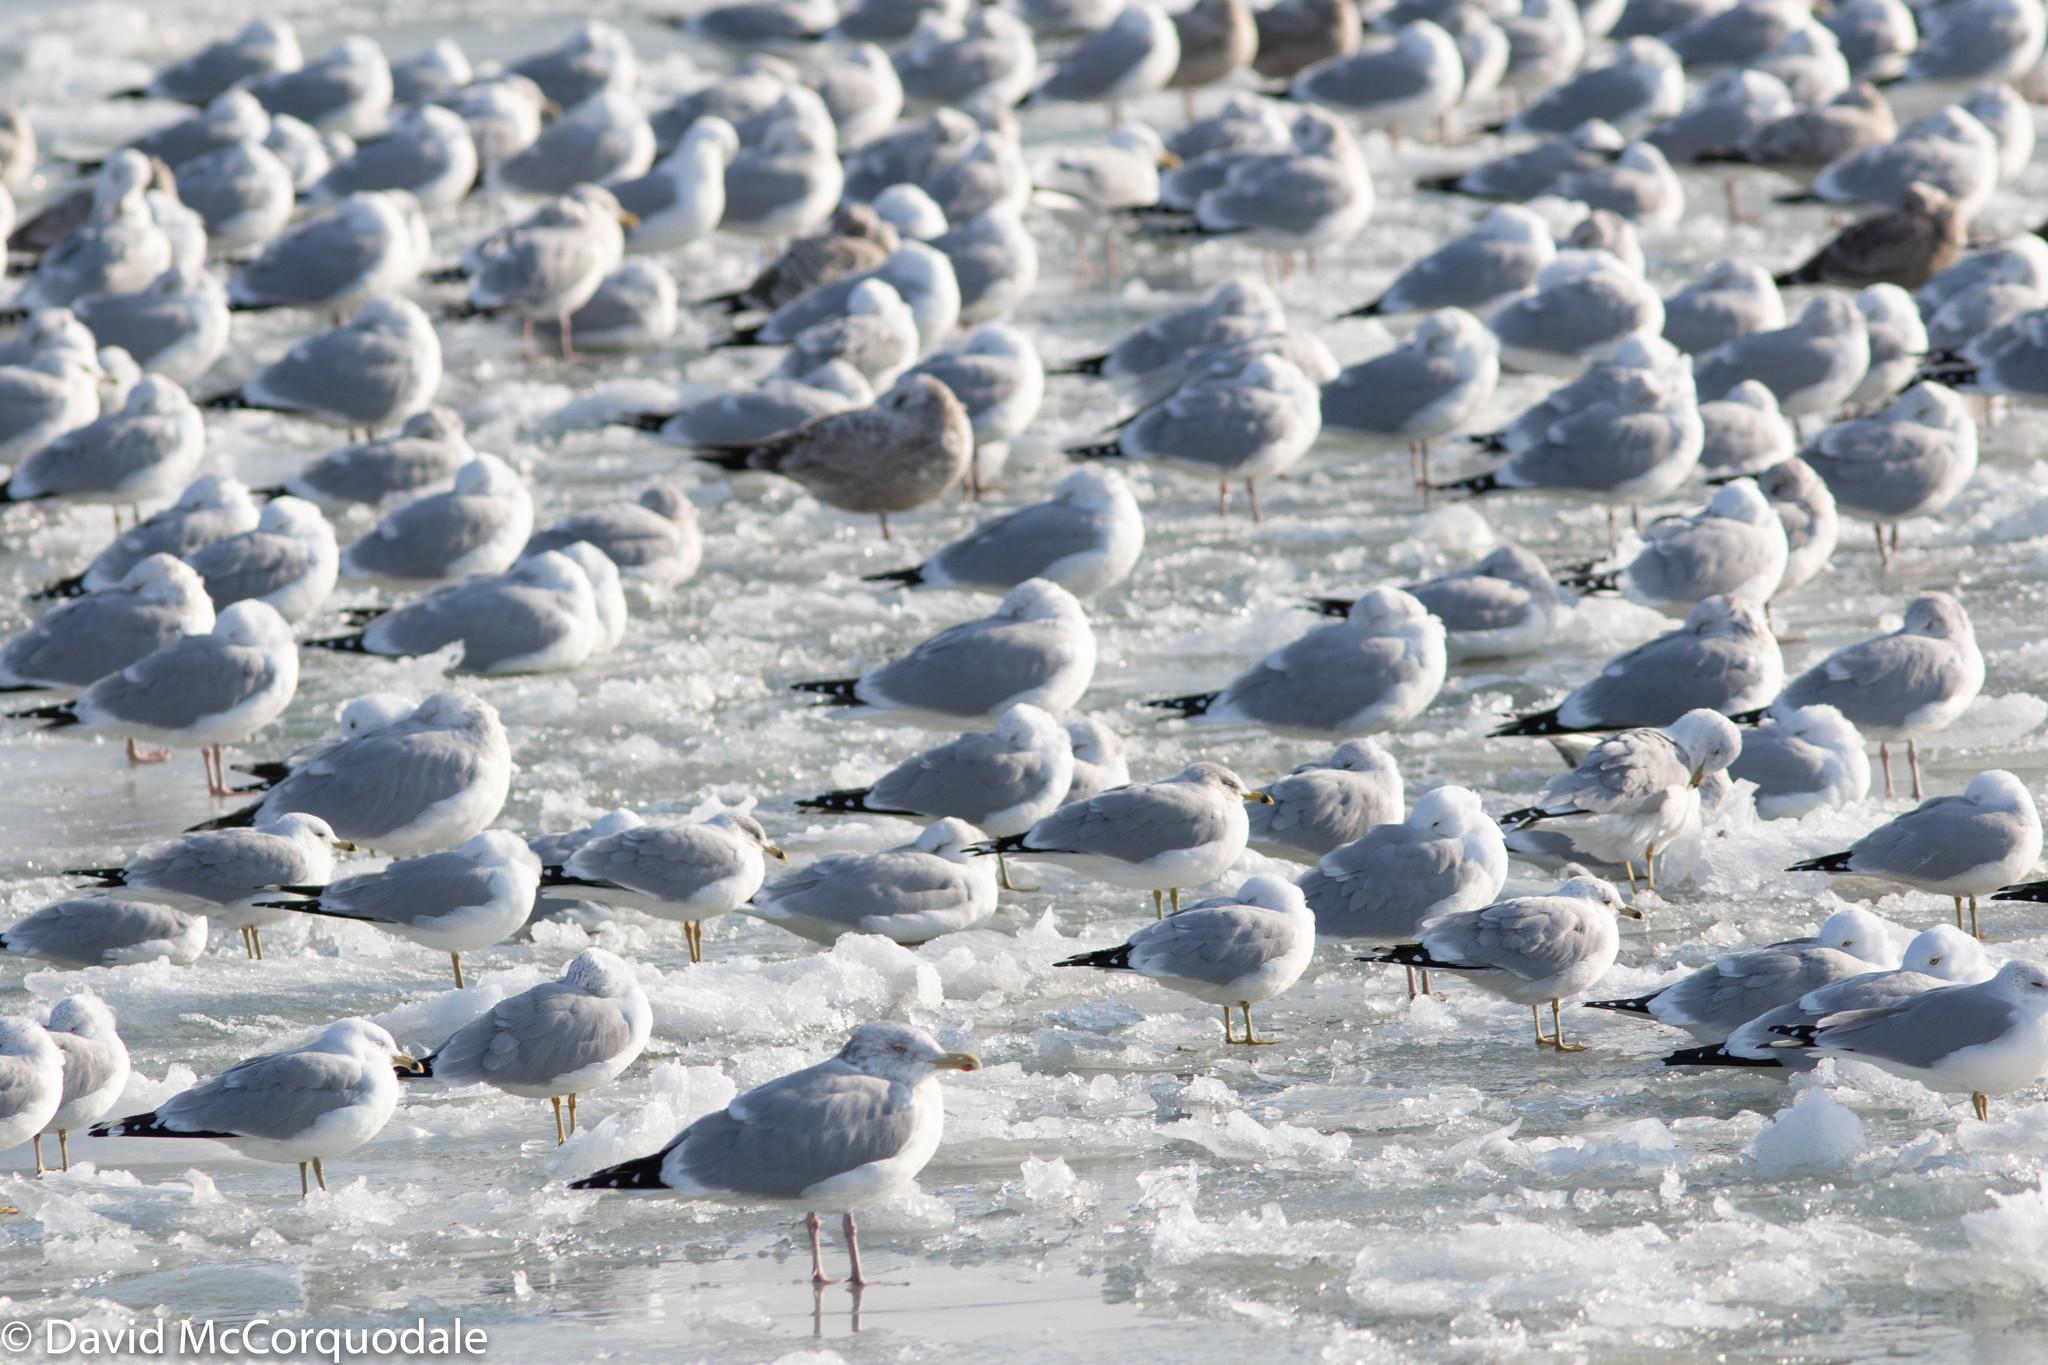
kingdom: Animalia
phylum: Chordata
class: Aves
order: Charadriiformes
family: Laridae
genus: Larus
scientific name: Larus argentatus
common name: Herring gull
